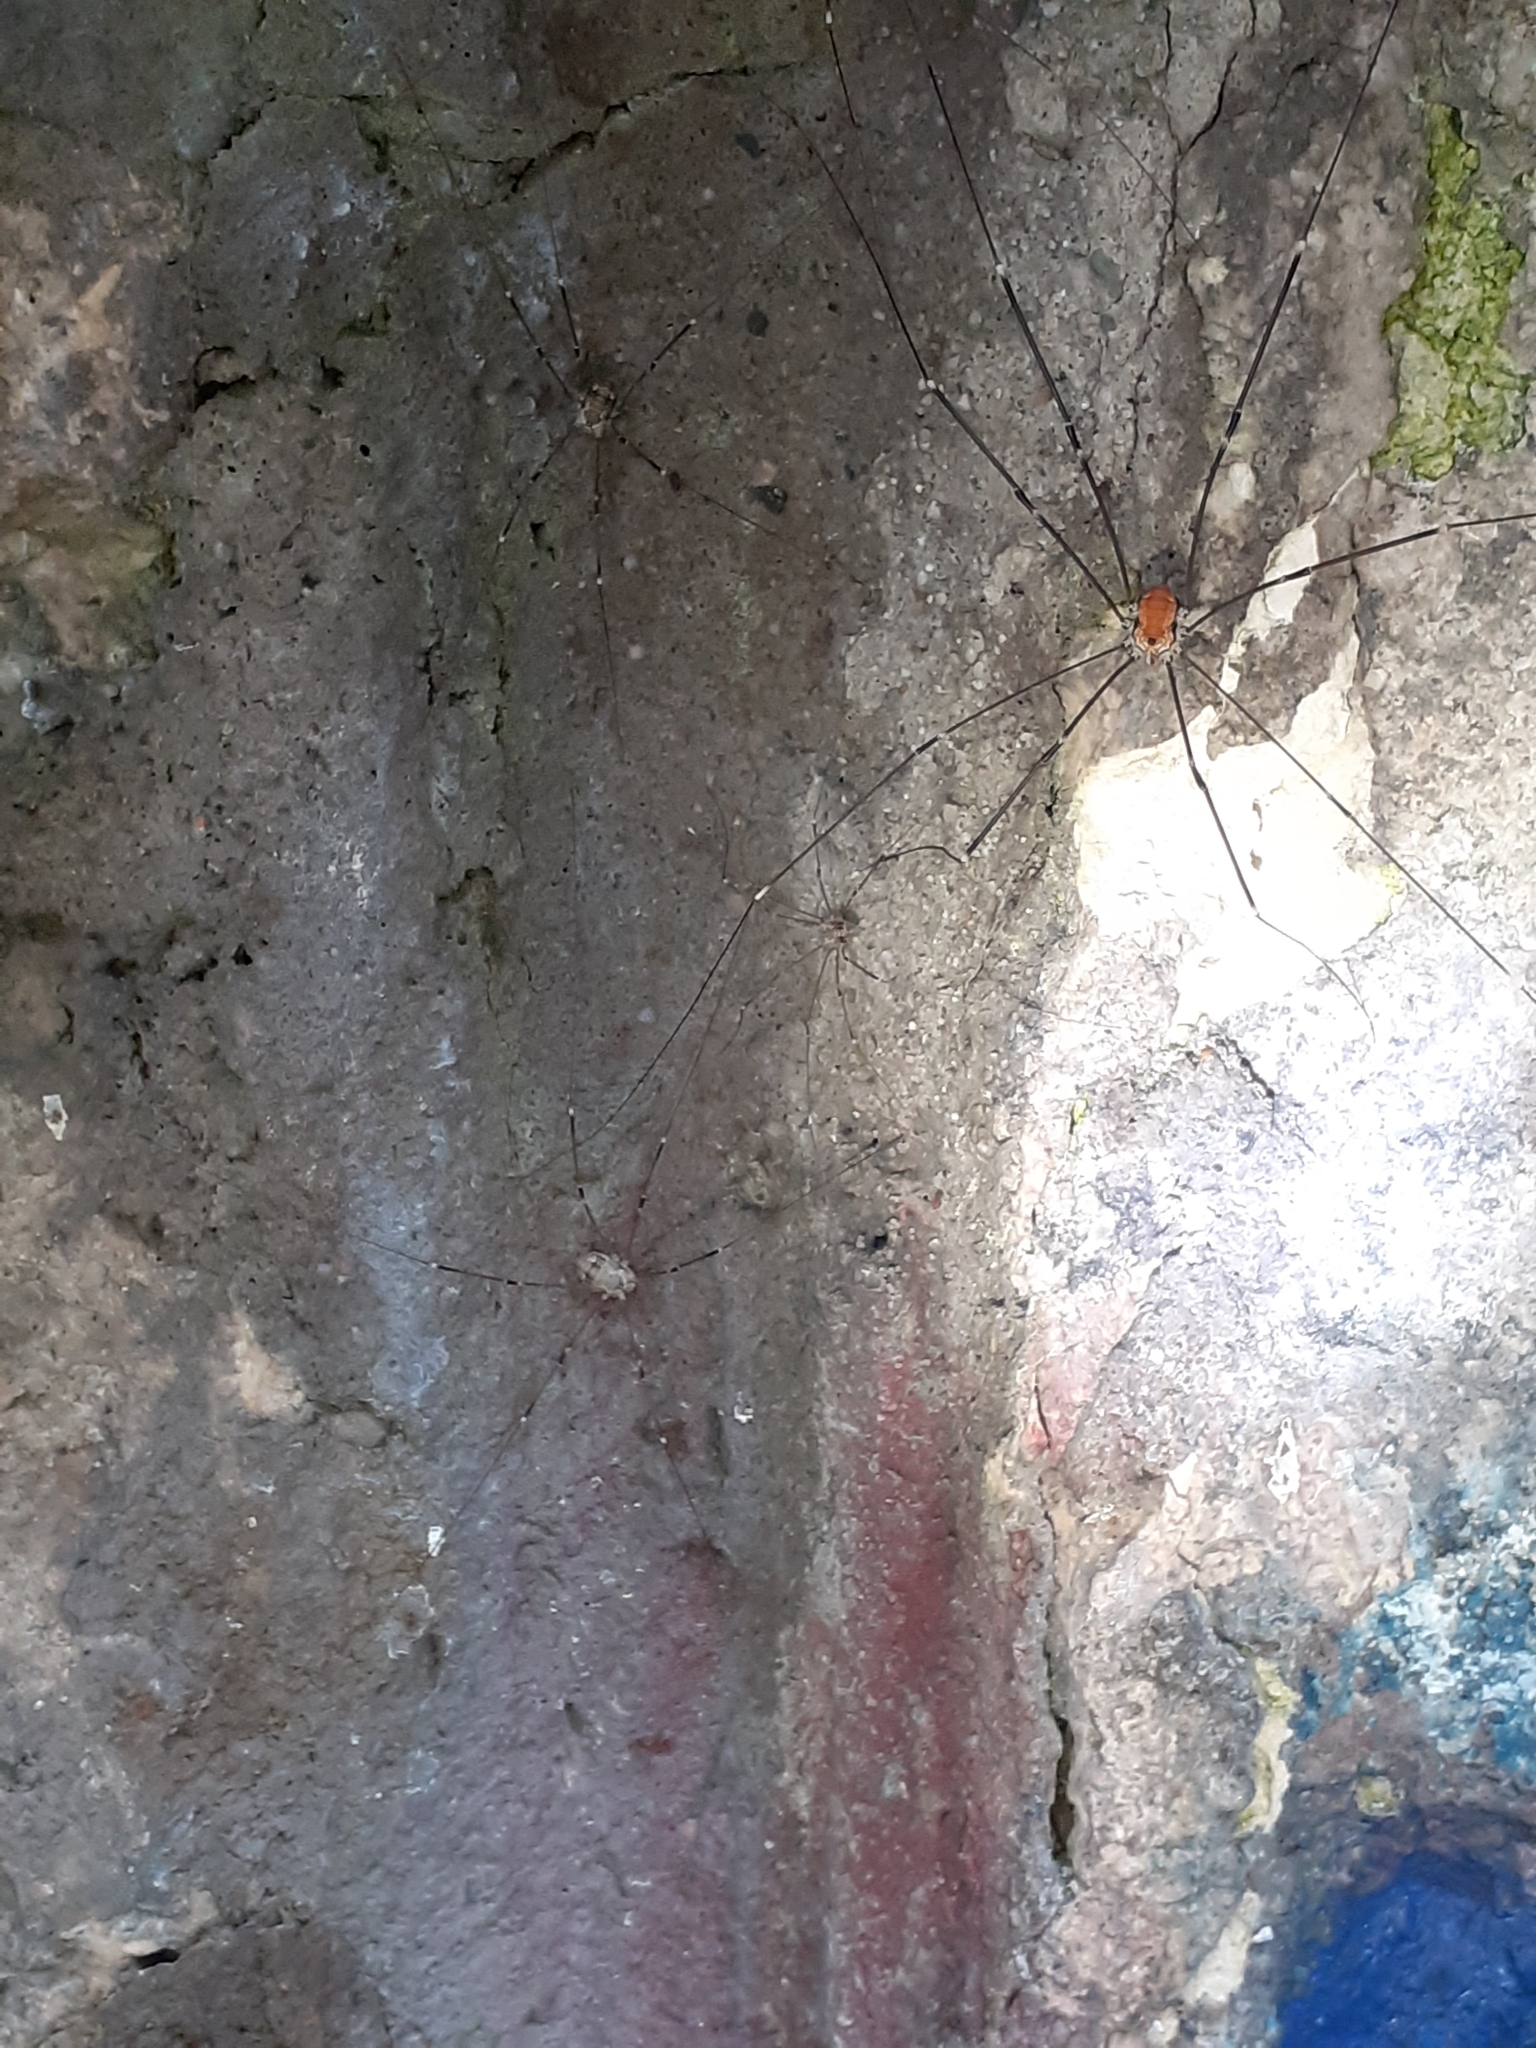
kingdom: Animalia
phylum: Arthropoda
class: Arachnida
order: Opiliones
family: Sclerosomatidae
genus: Leiobunum
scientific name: Leiobunum limbatum
